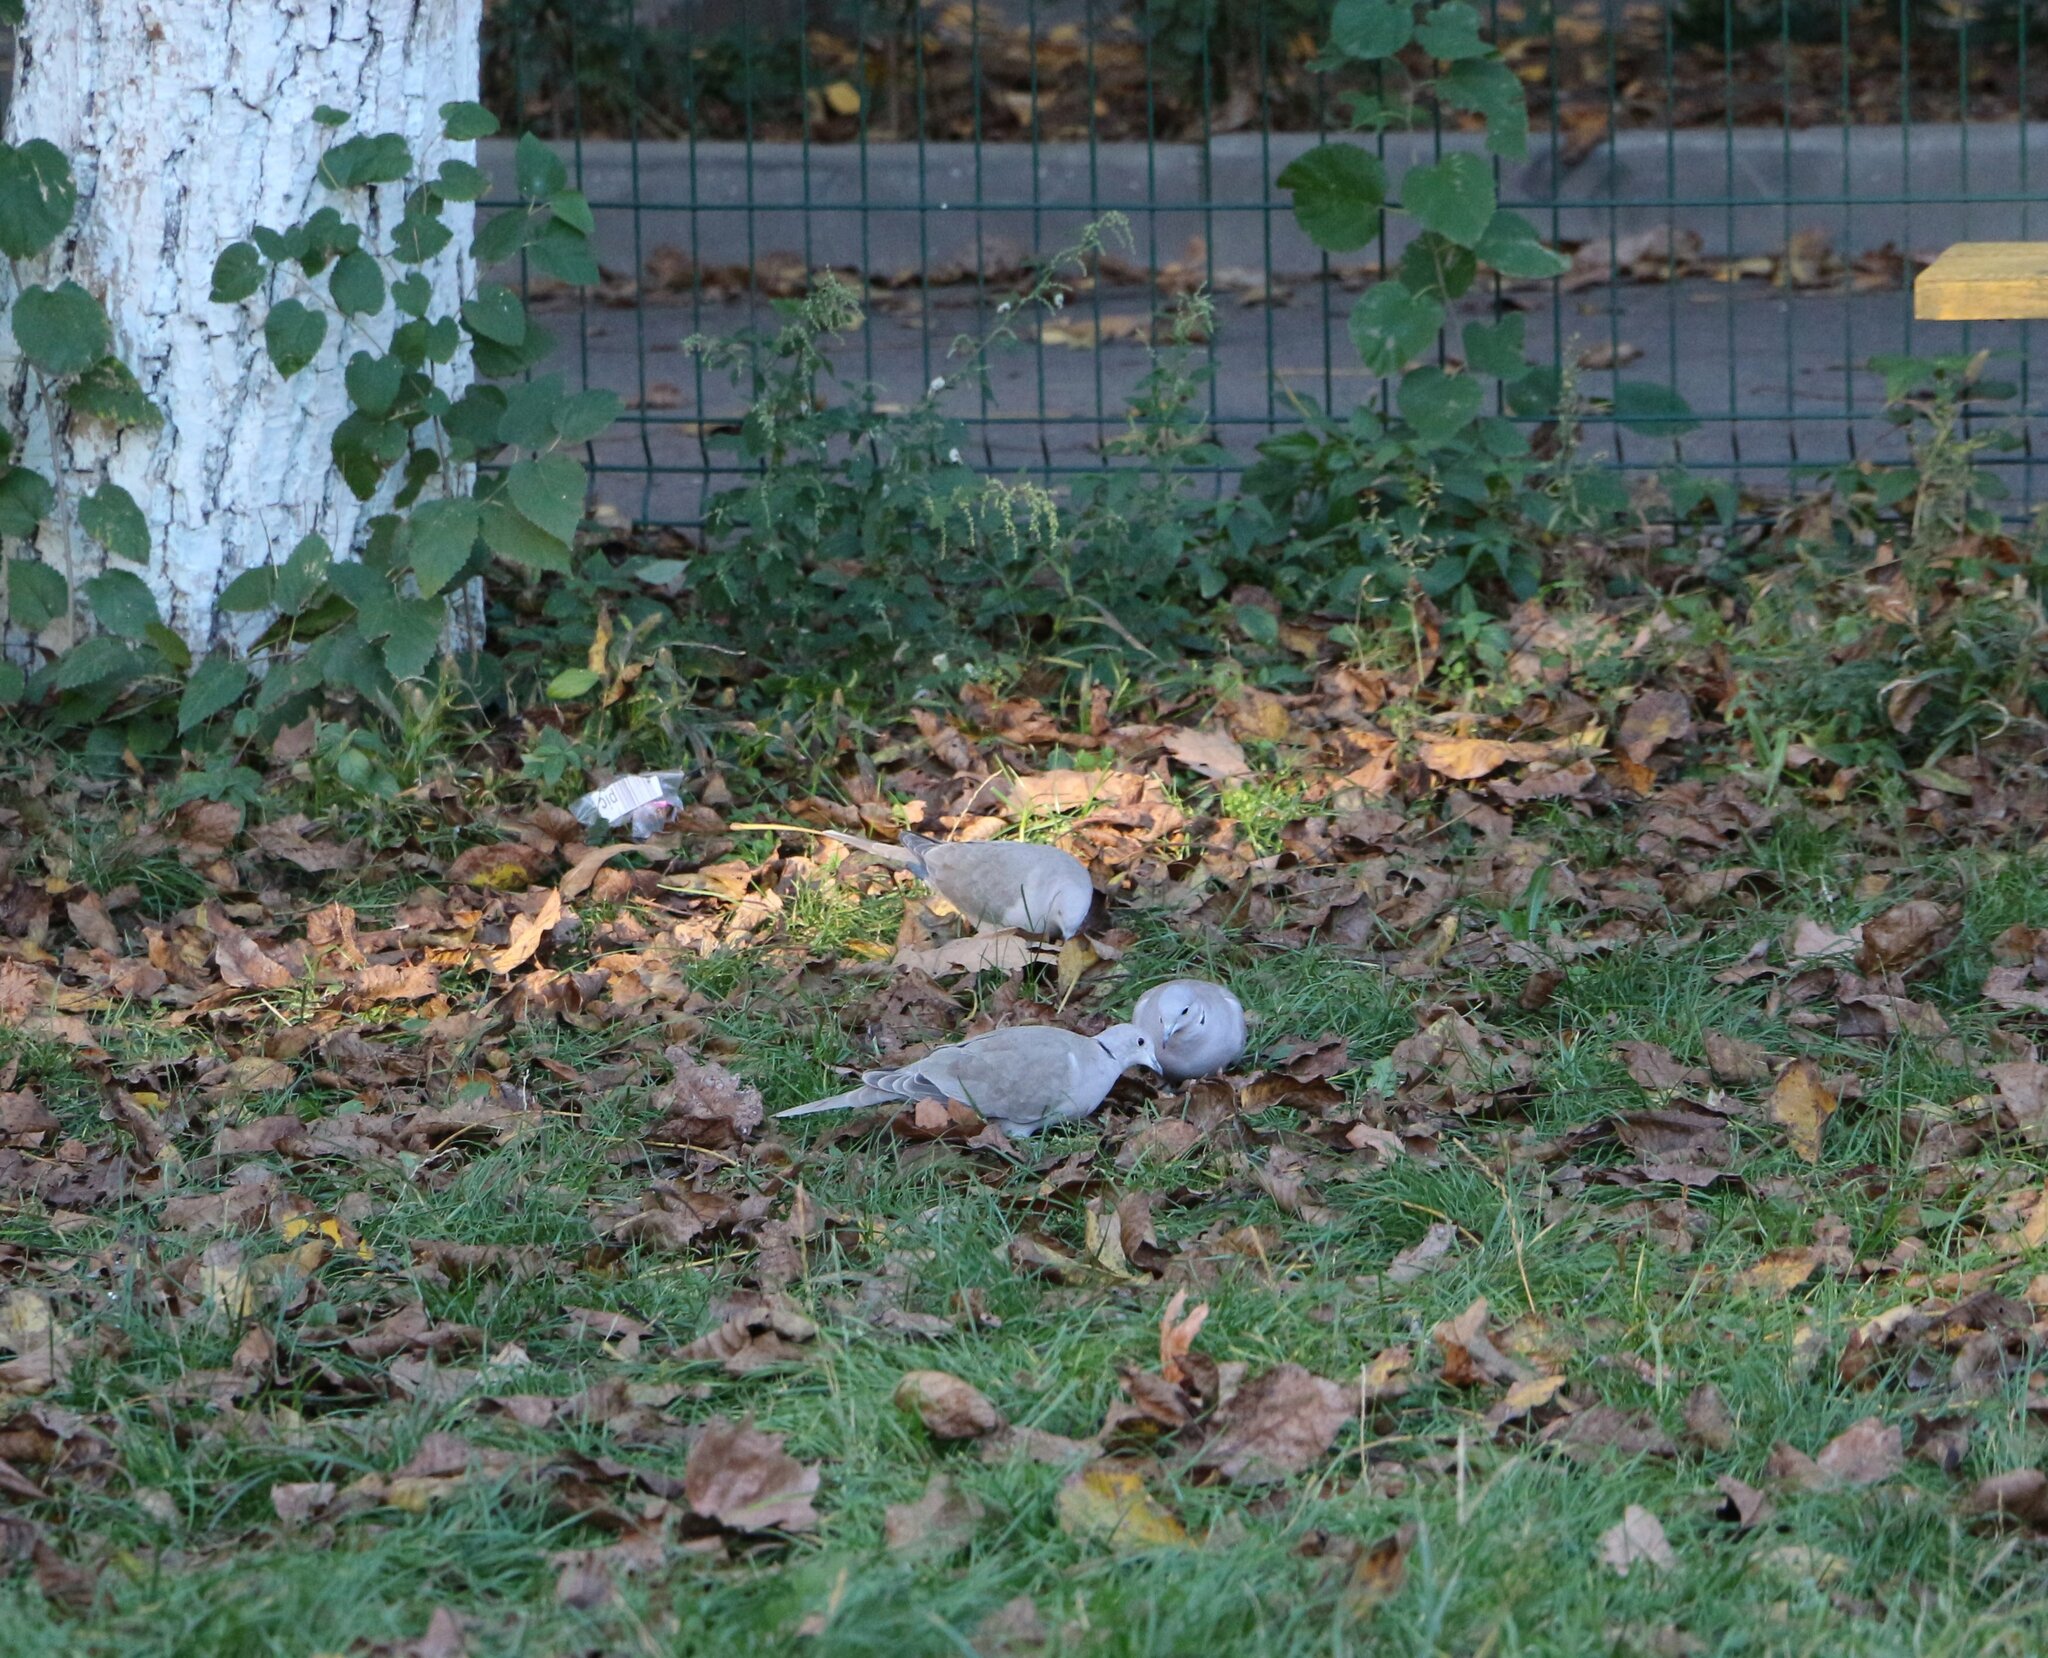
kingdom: Animalia
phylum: Chordata
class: Aves
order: Columbiformes
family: Columbidae
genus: Streptopelia
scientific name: Streptopelia decaocto
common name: Eurasian collared dove
